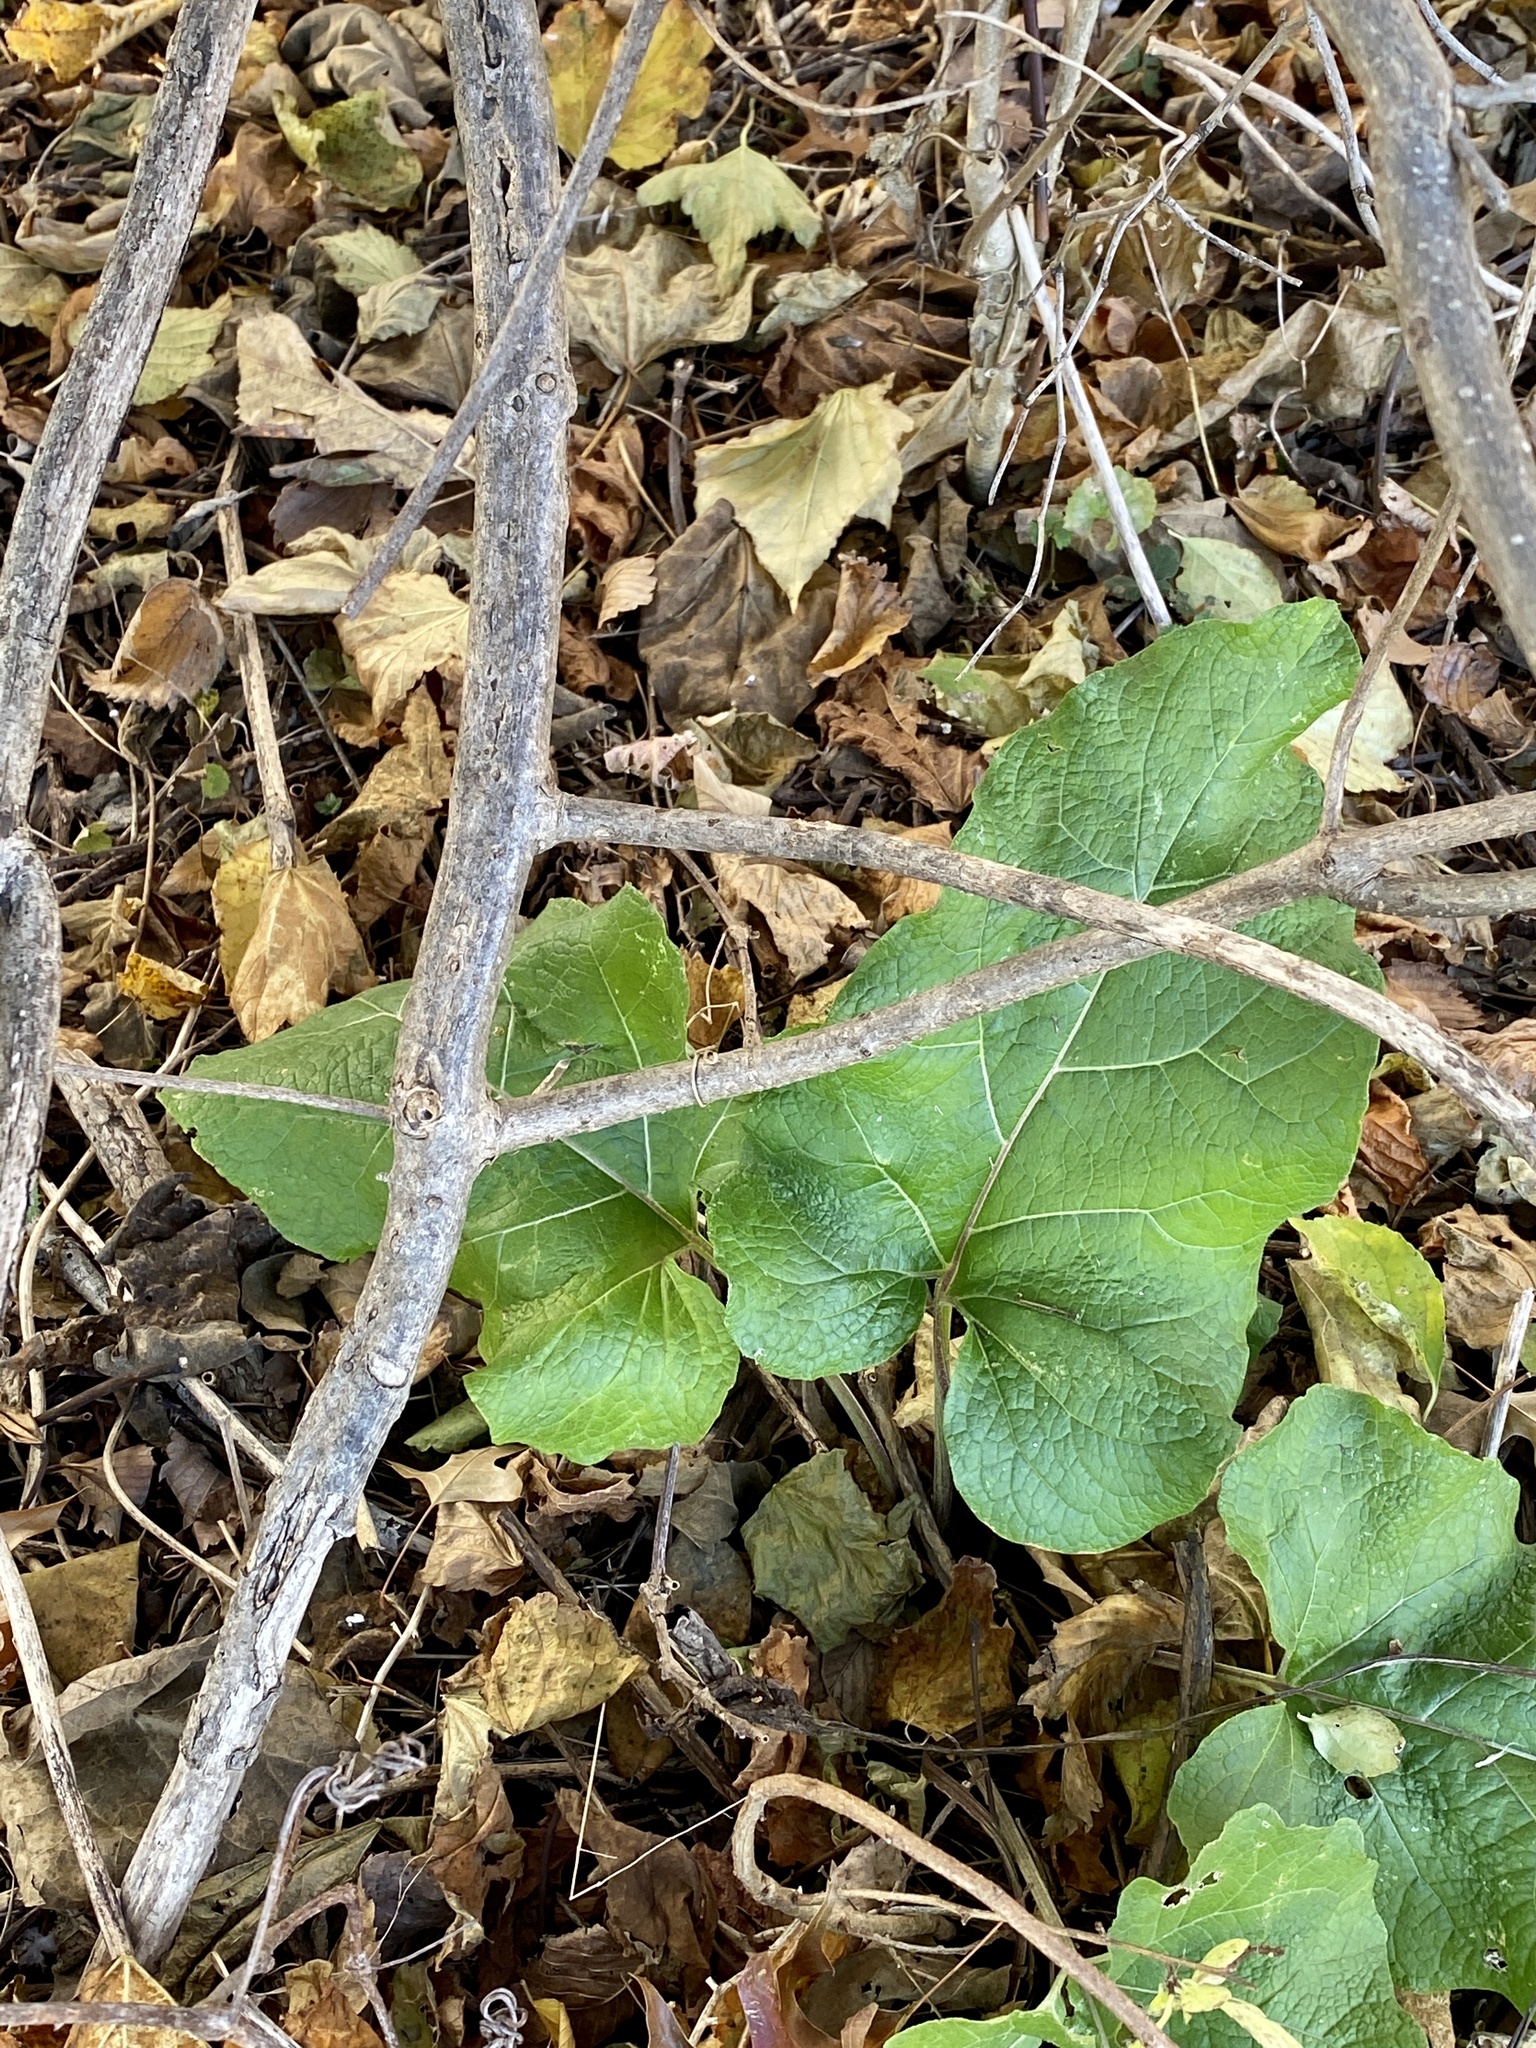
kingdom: Plantae
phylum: Tracheophyta
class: Magnoliopsida
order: Asterales
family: Asteraceae
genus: Arctium
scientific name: Arctium
